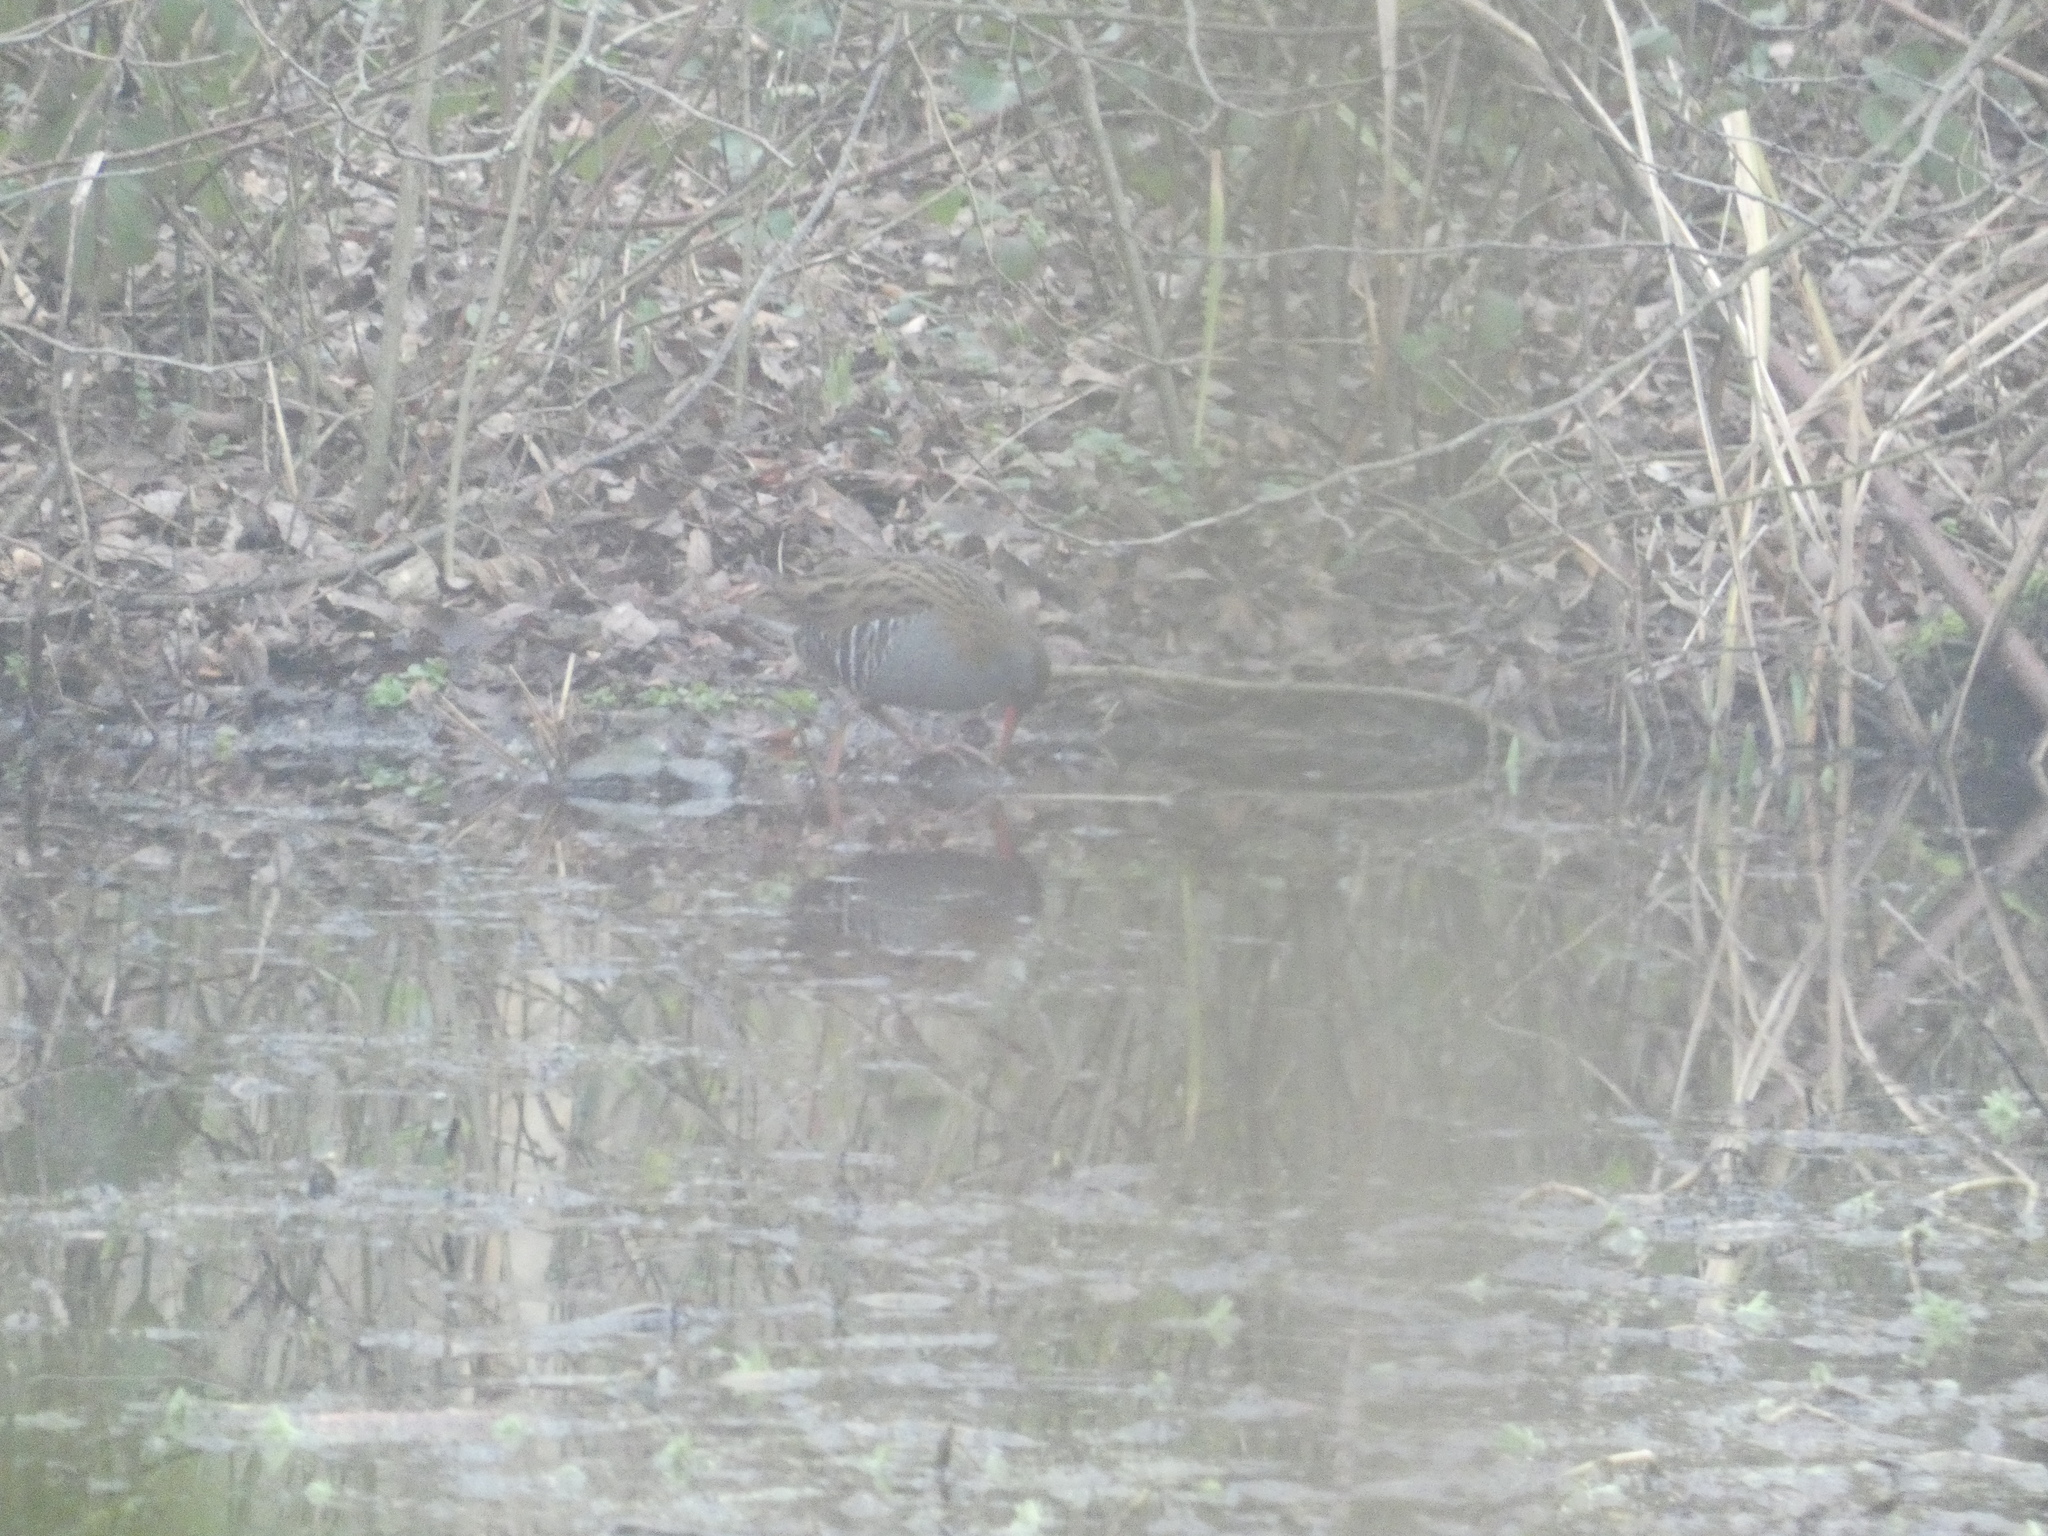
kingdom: Animalia
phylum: Chordata
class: Aves
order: Gruiformes
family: Rallidae
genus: Rallus
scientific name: Rallus aquaticus
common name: Water rail
